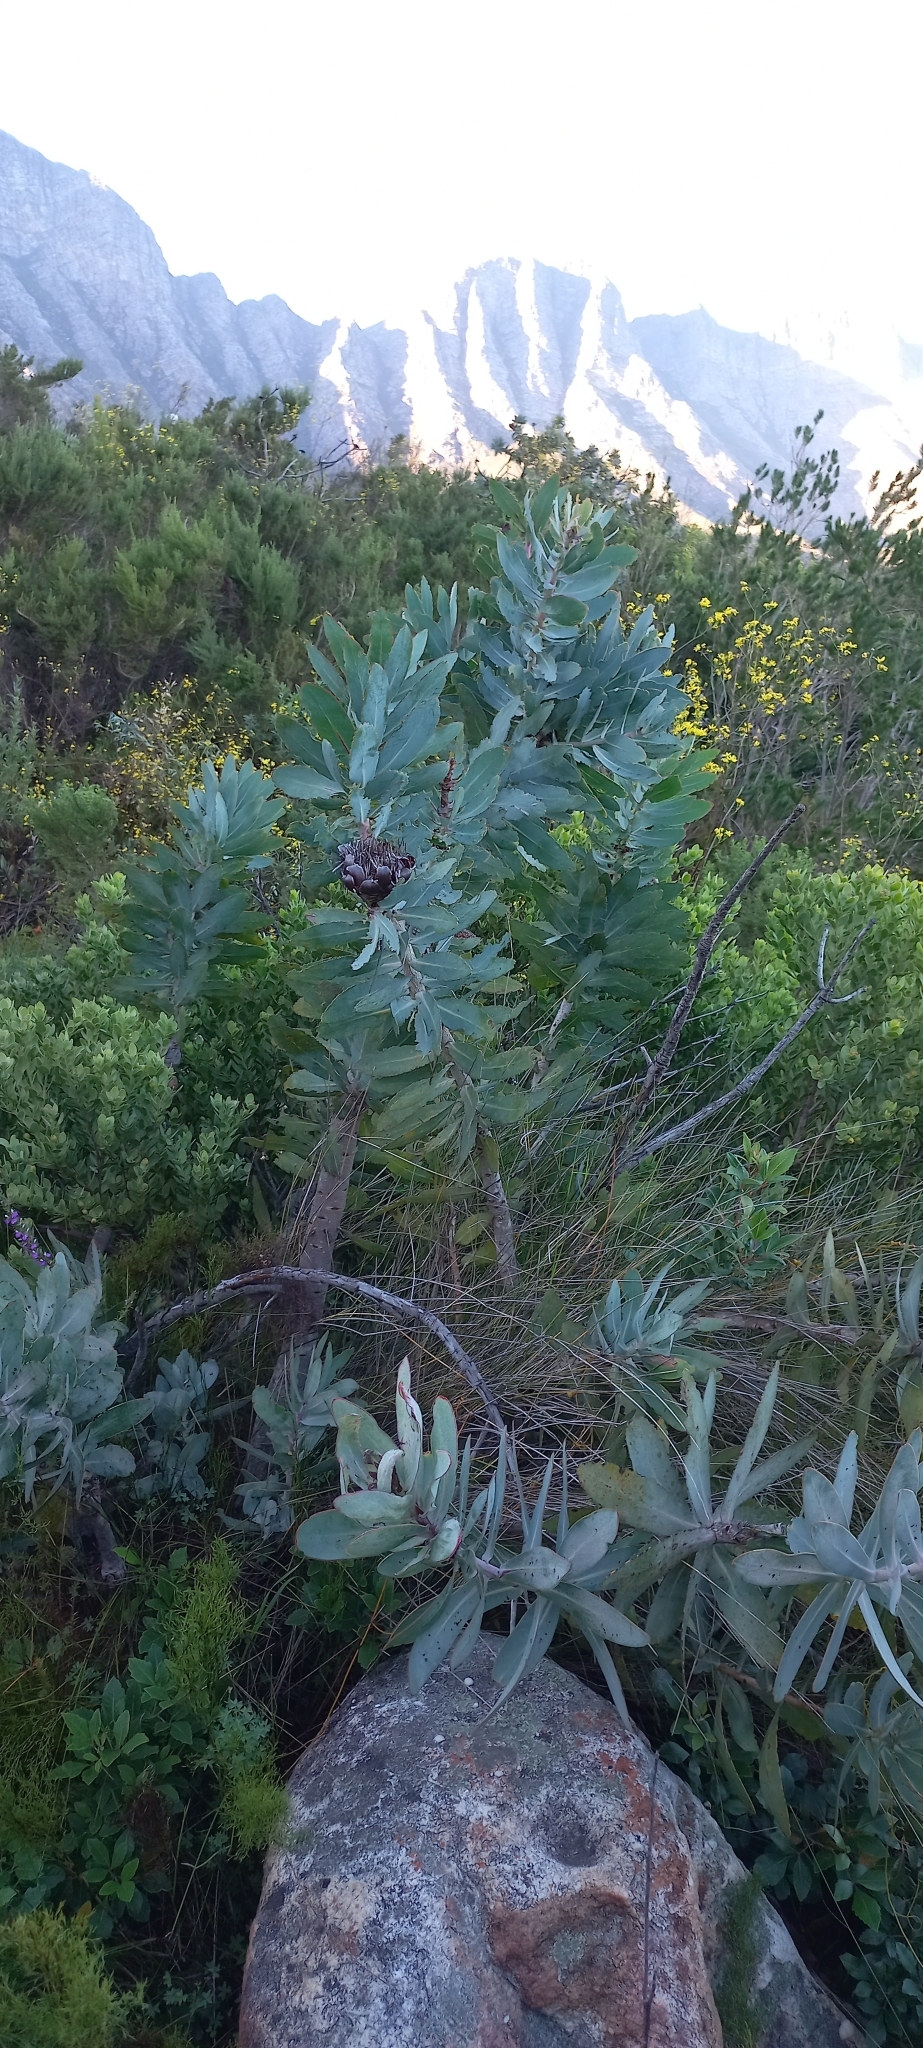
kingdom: Plantae
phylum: Tracheophyta
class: Magnoliopsida
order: Proteales
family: Proteaceae
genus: Protea
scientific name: Protea nitida
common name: Tree protea
